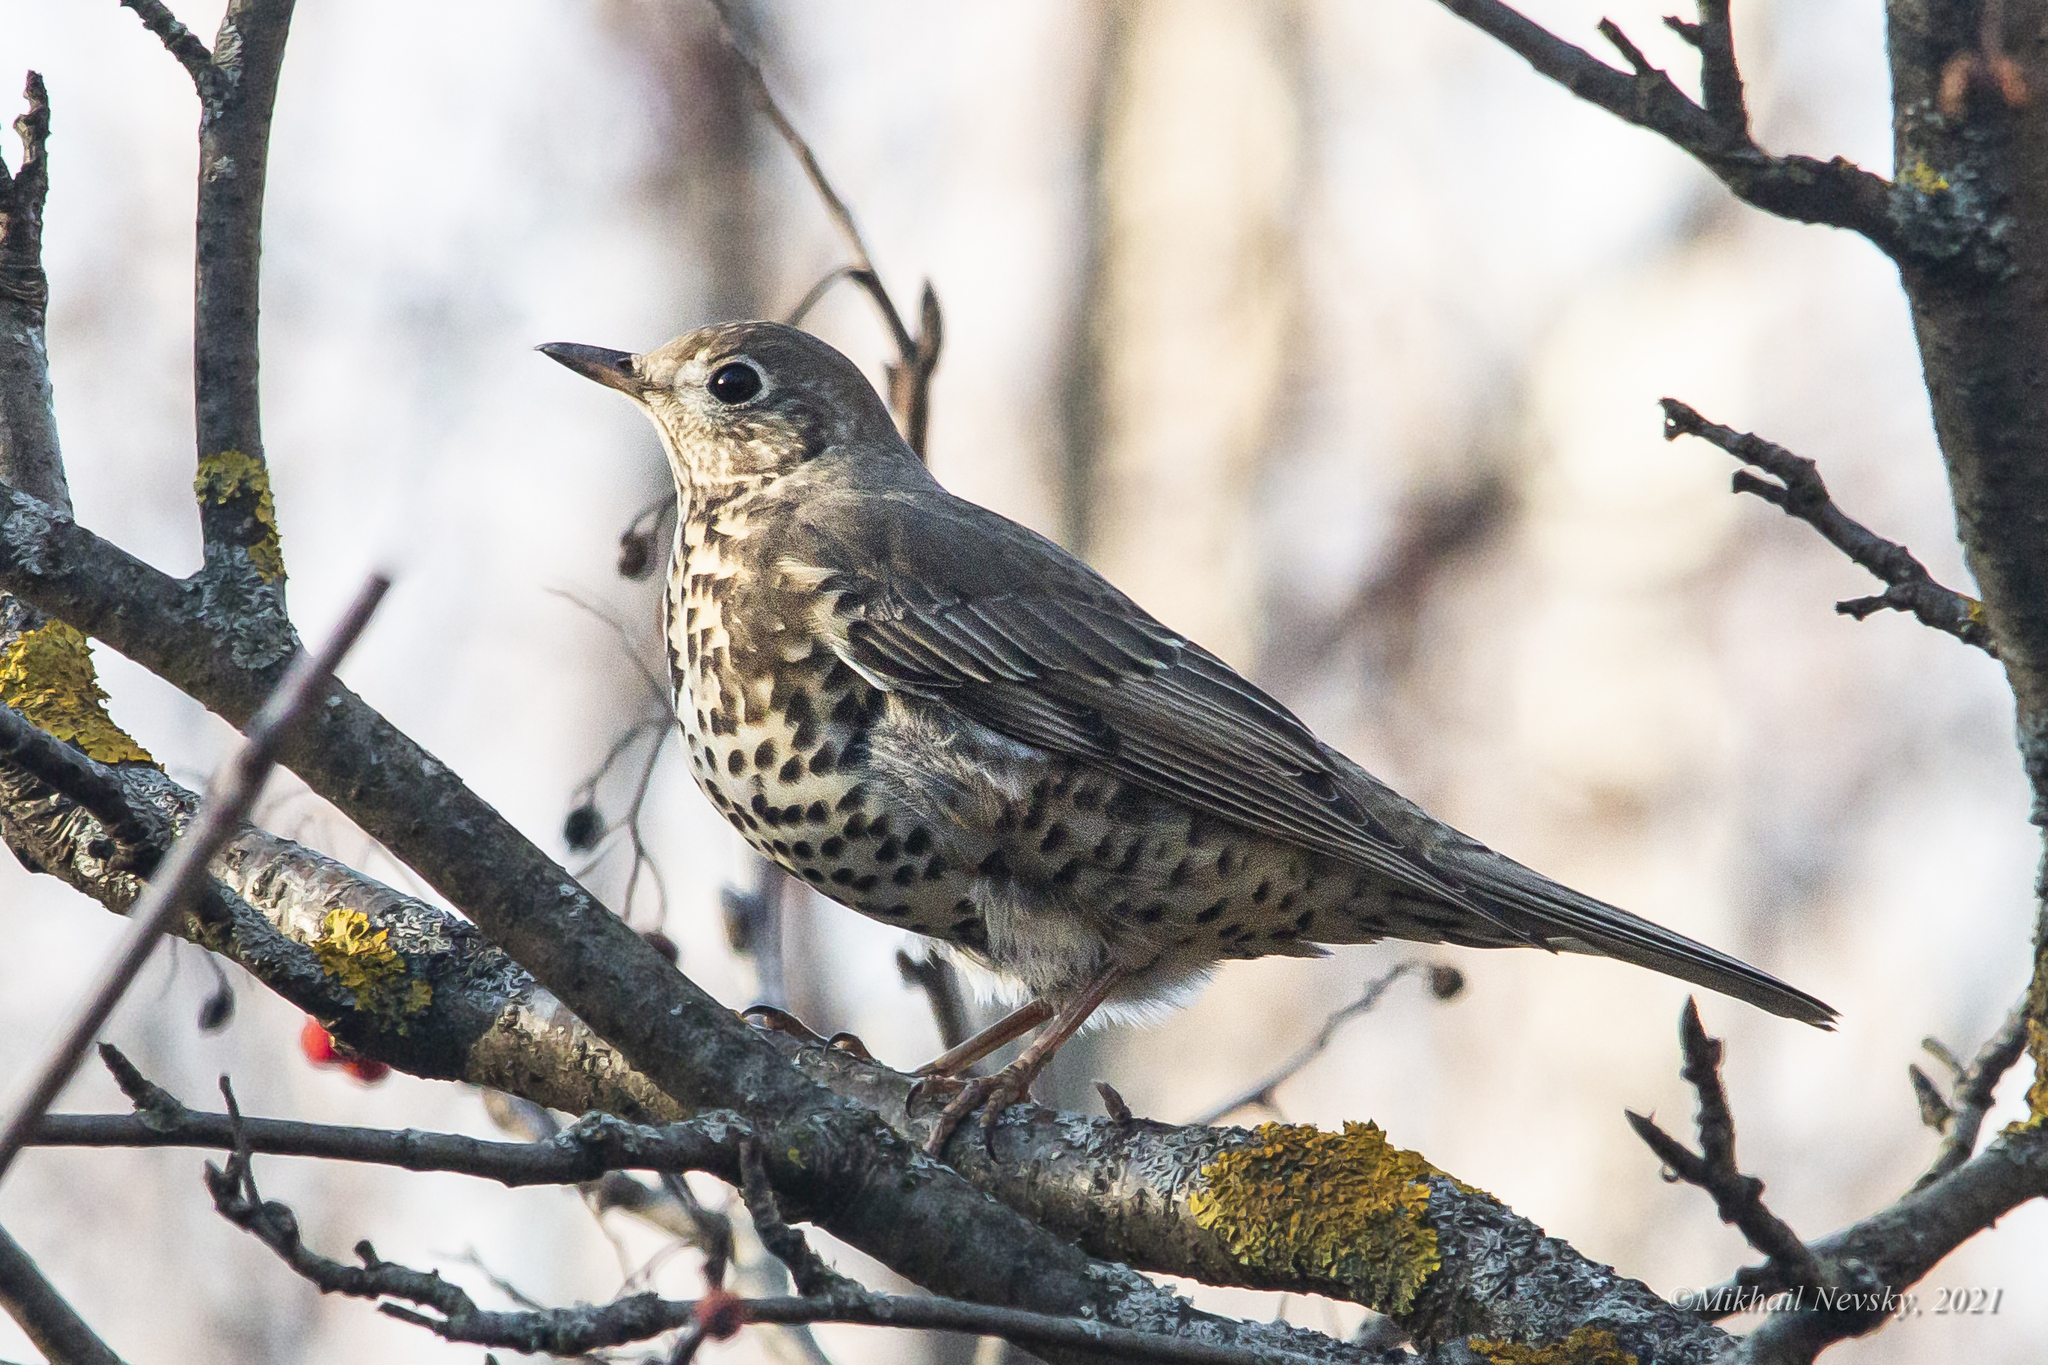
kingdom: Animalia
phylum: Chordata
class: Aves
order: Passeriformes
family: Turdidae
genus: Turdus
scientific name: Turdus viscivorus
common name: Mistle thrush
